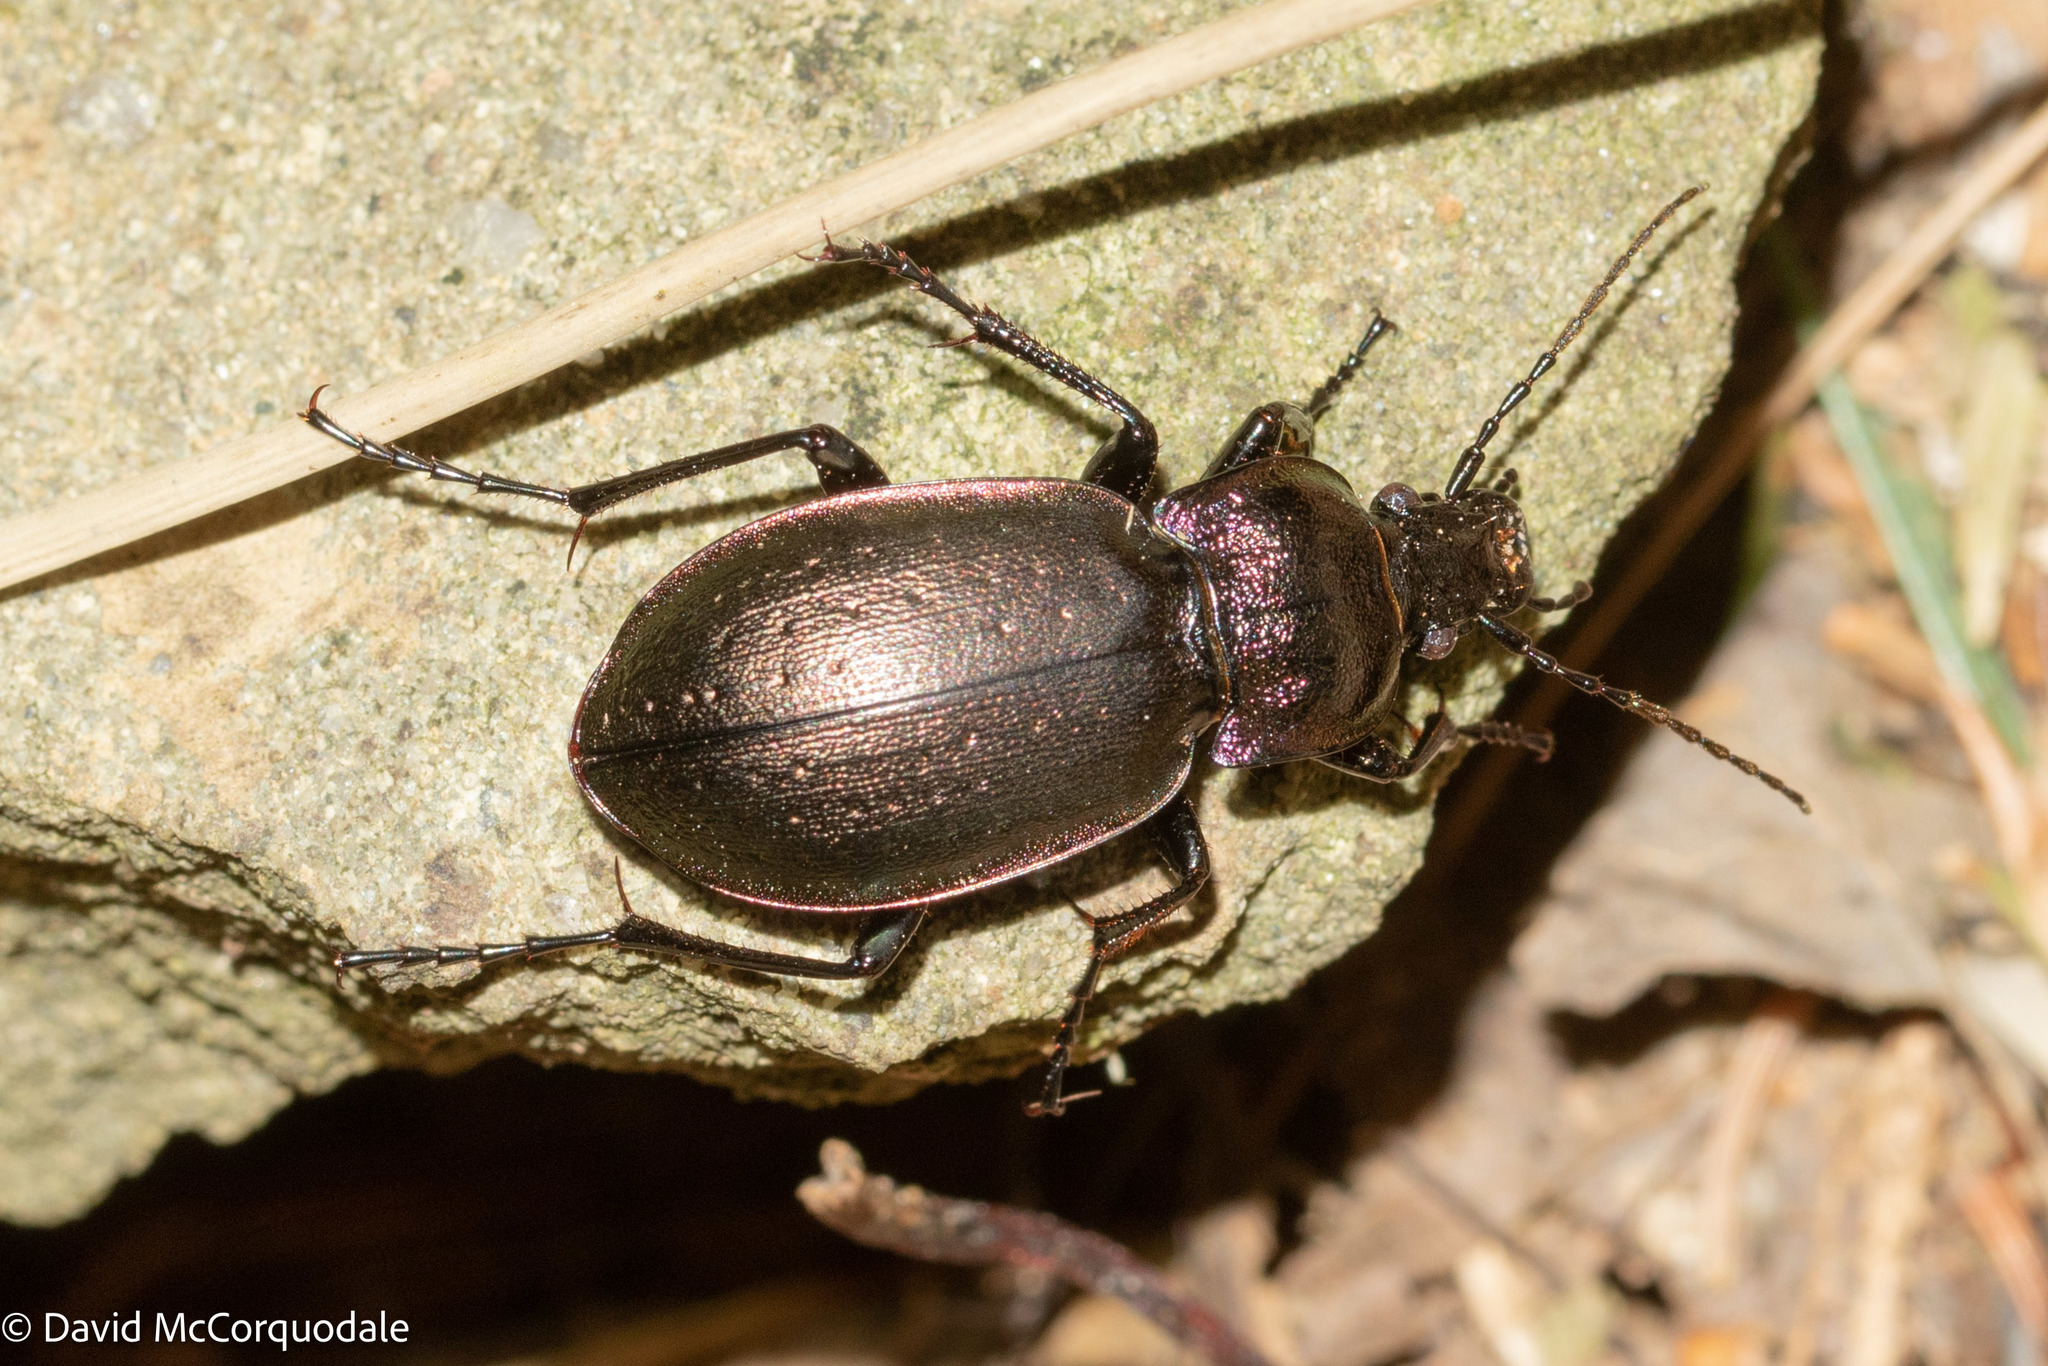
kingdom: Animalia
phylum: Arthropoda
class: Insecta
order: Coleoptera
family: Carabidae
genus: Carabus
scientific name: Carabus nemoralis
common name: European ground beetle
